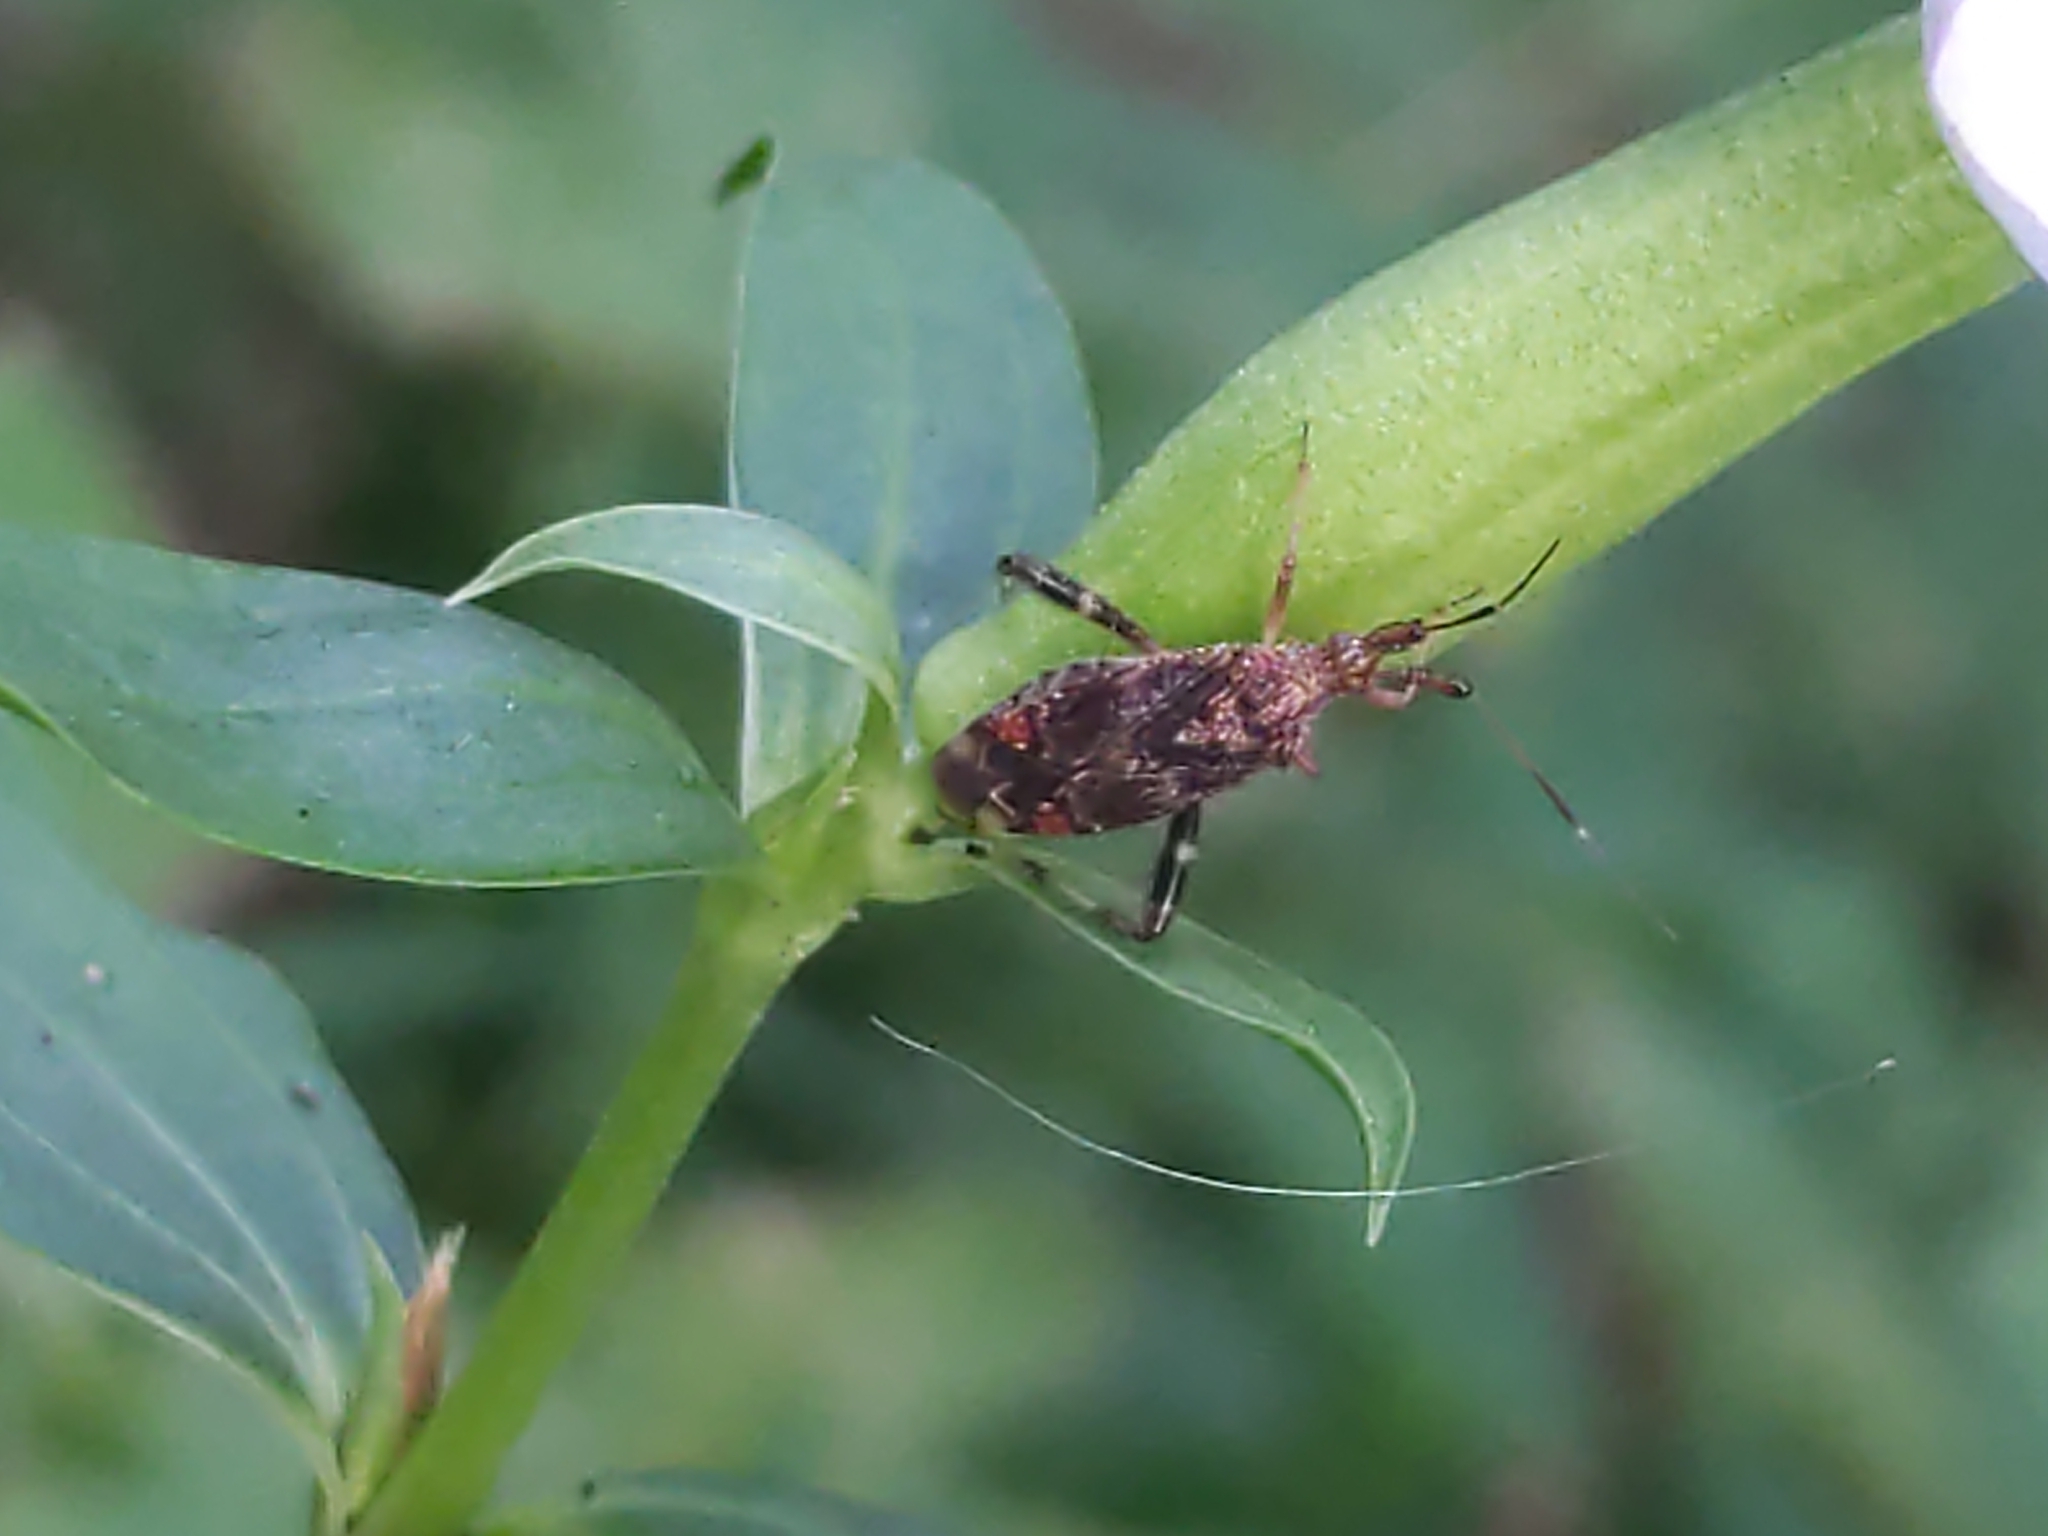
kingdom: Animalia
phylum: Arthropoda
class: Insecta
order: Hemiptera
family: Miridae
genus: Neurocolpus
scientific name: Neurocolpus nubilus
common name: Clouded plant bug
